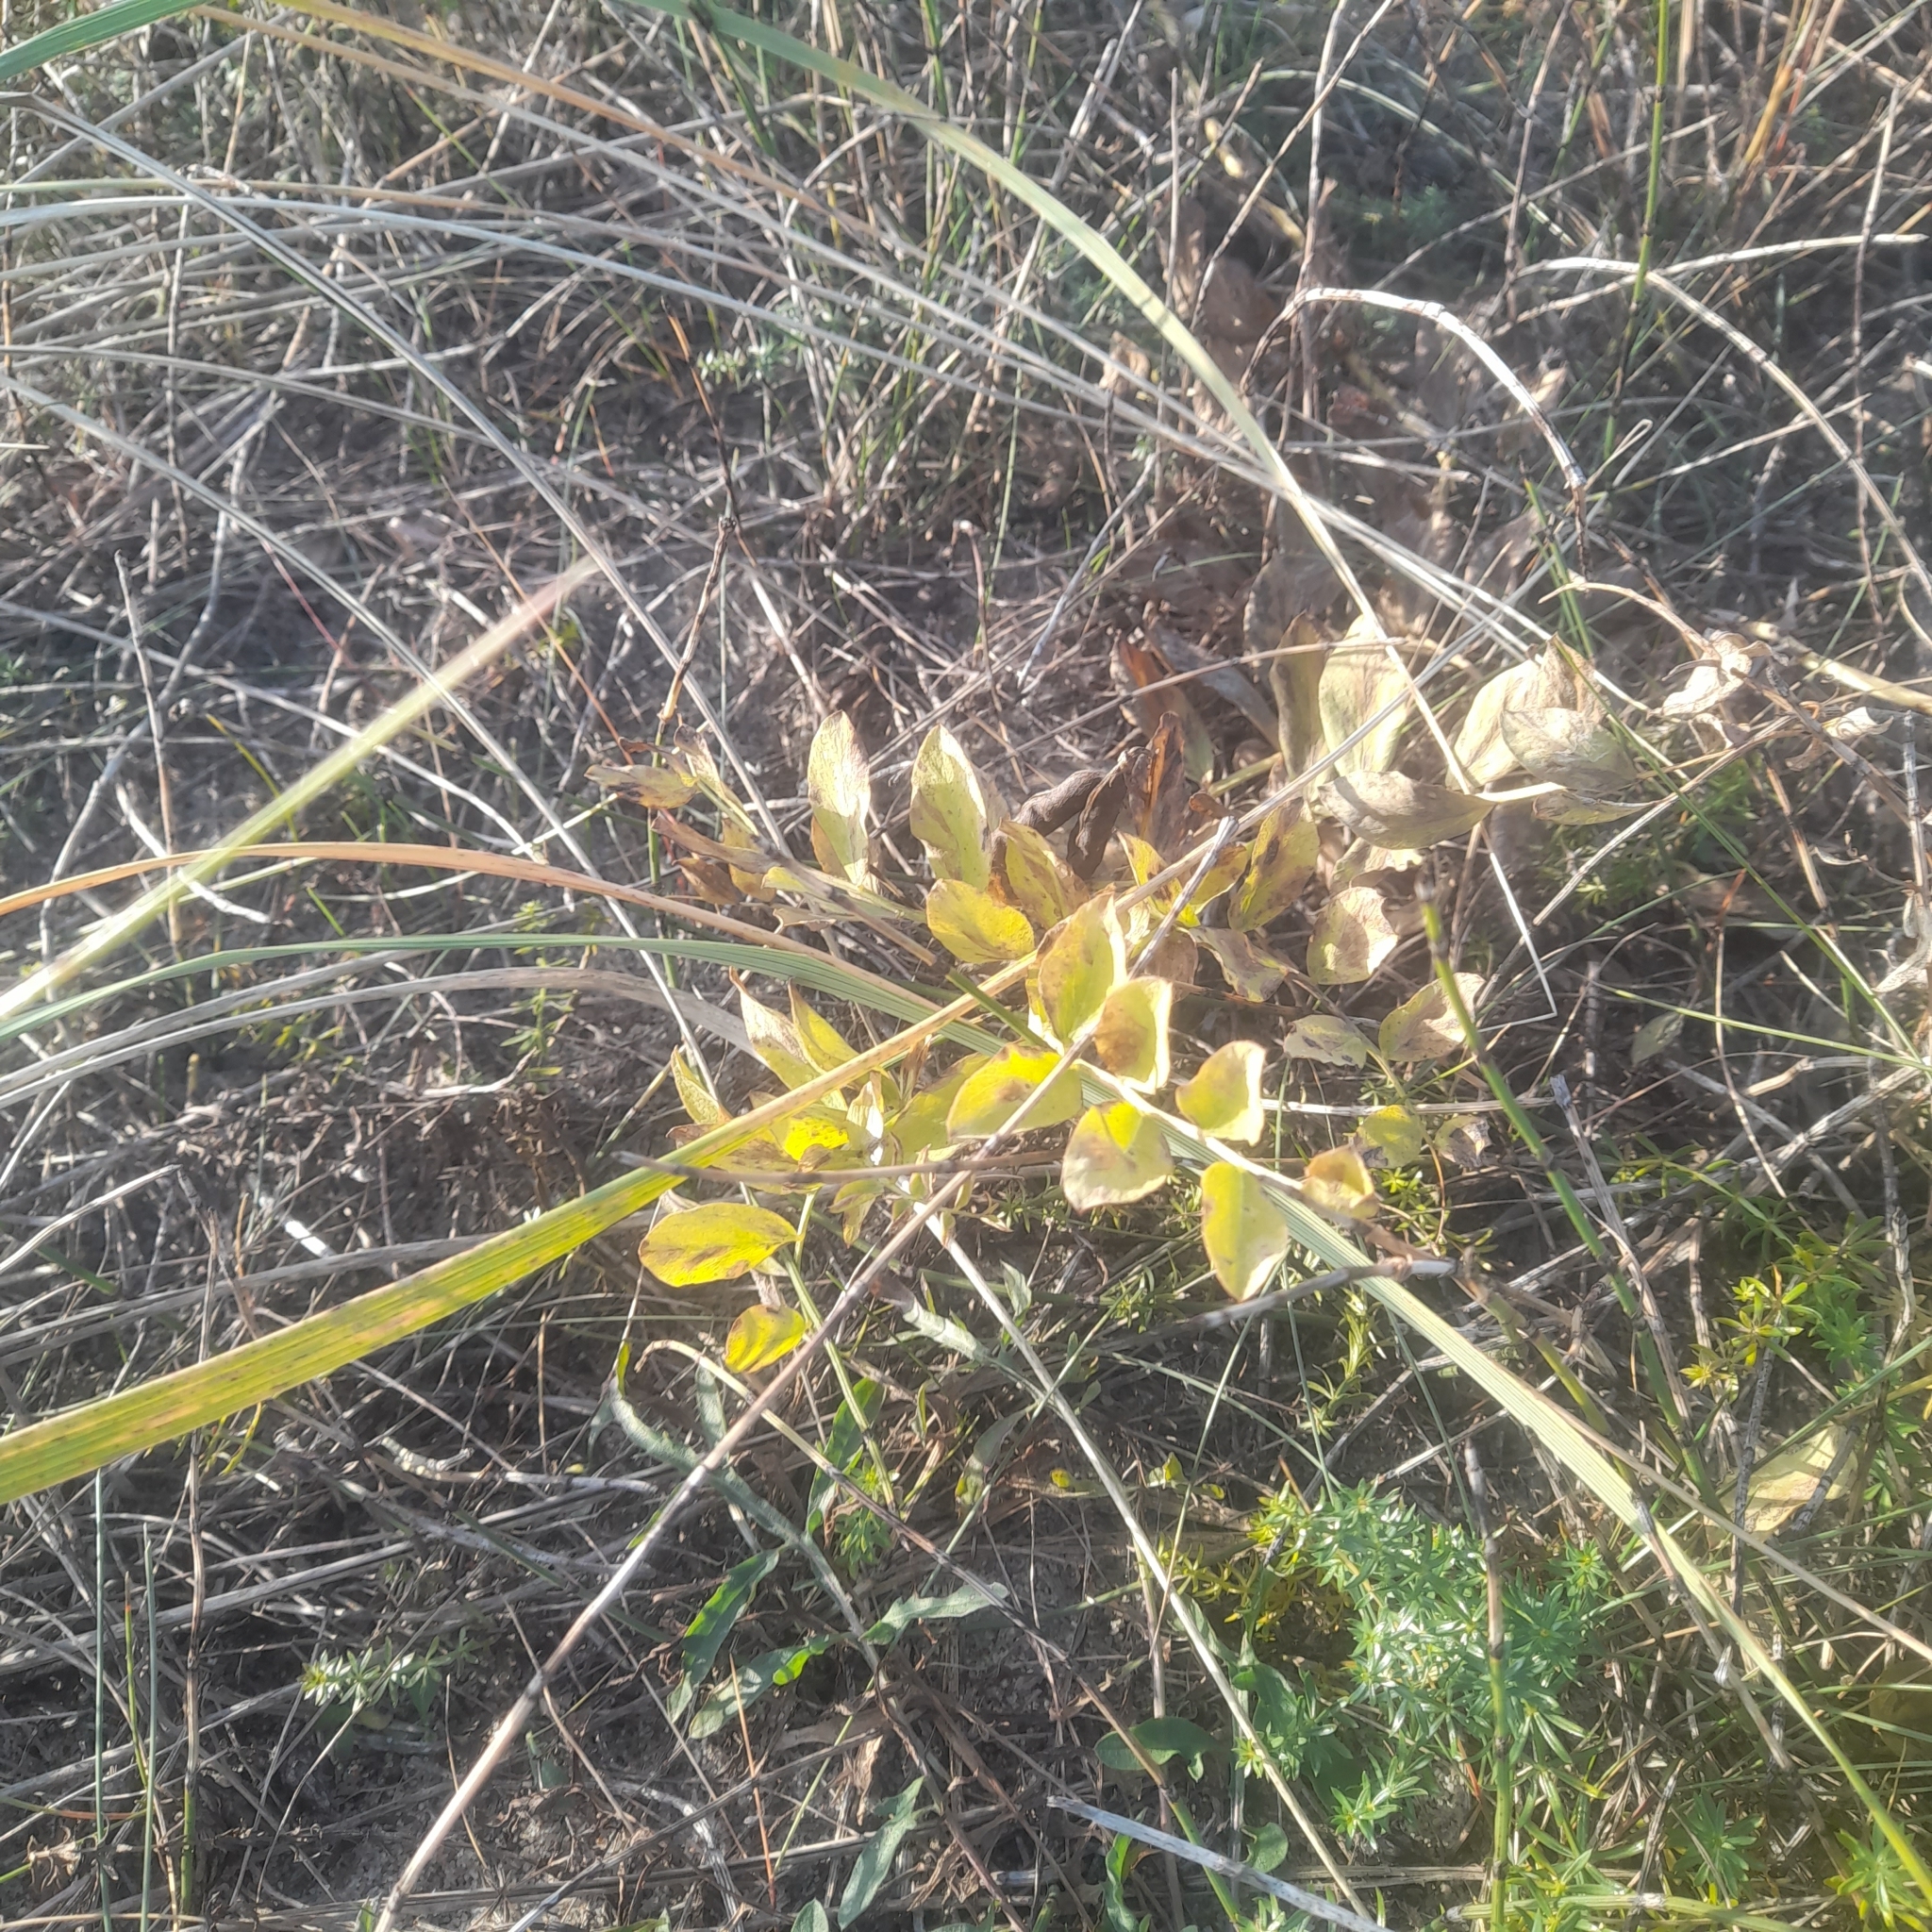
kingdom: Plantae
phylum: Tracheophyta
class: Magnoliopsida
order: Fabales
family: Fabaceae
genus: Lathyrus
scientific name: Lathyrus japonicus
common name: Sea pea
